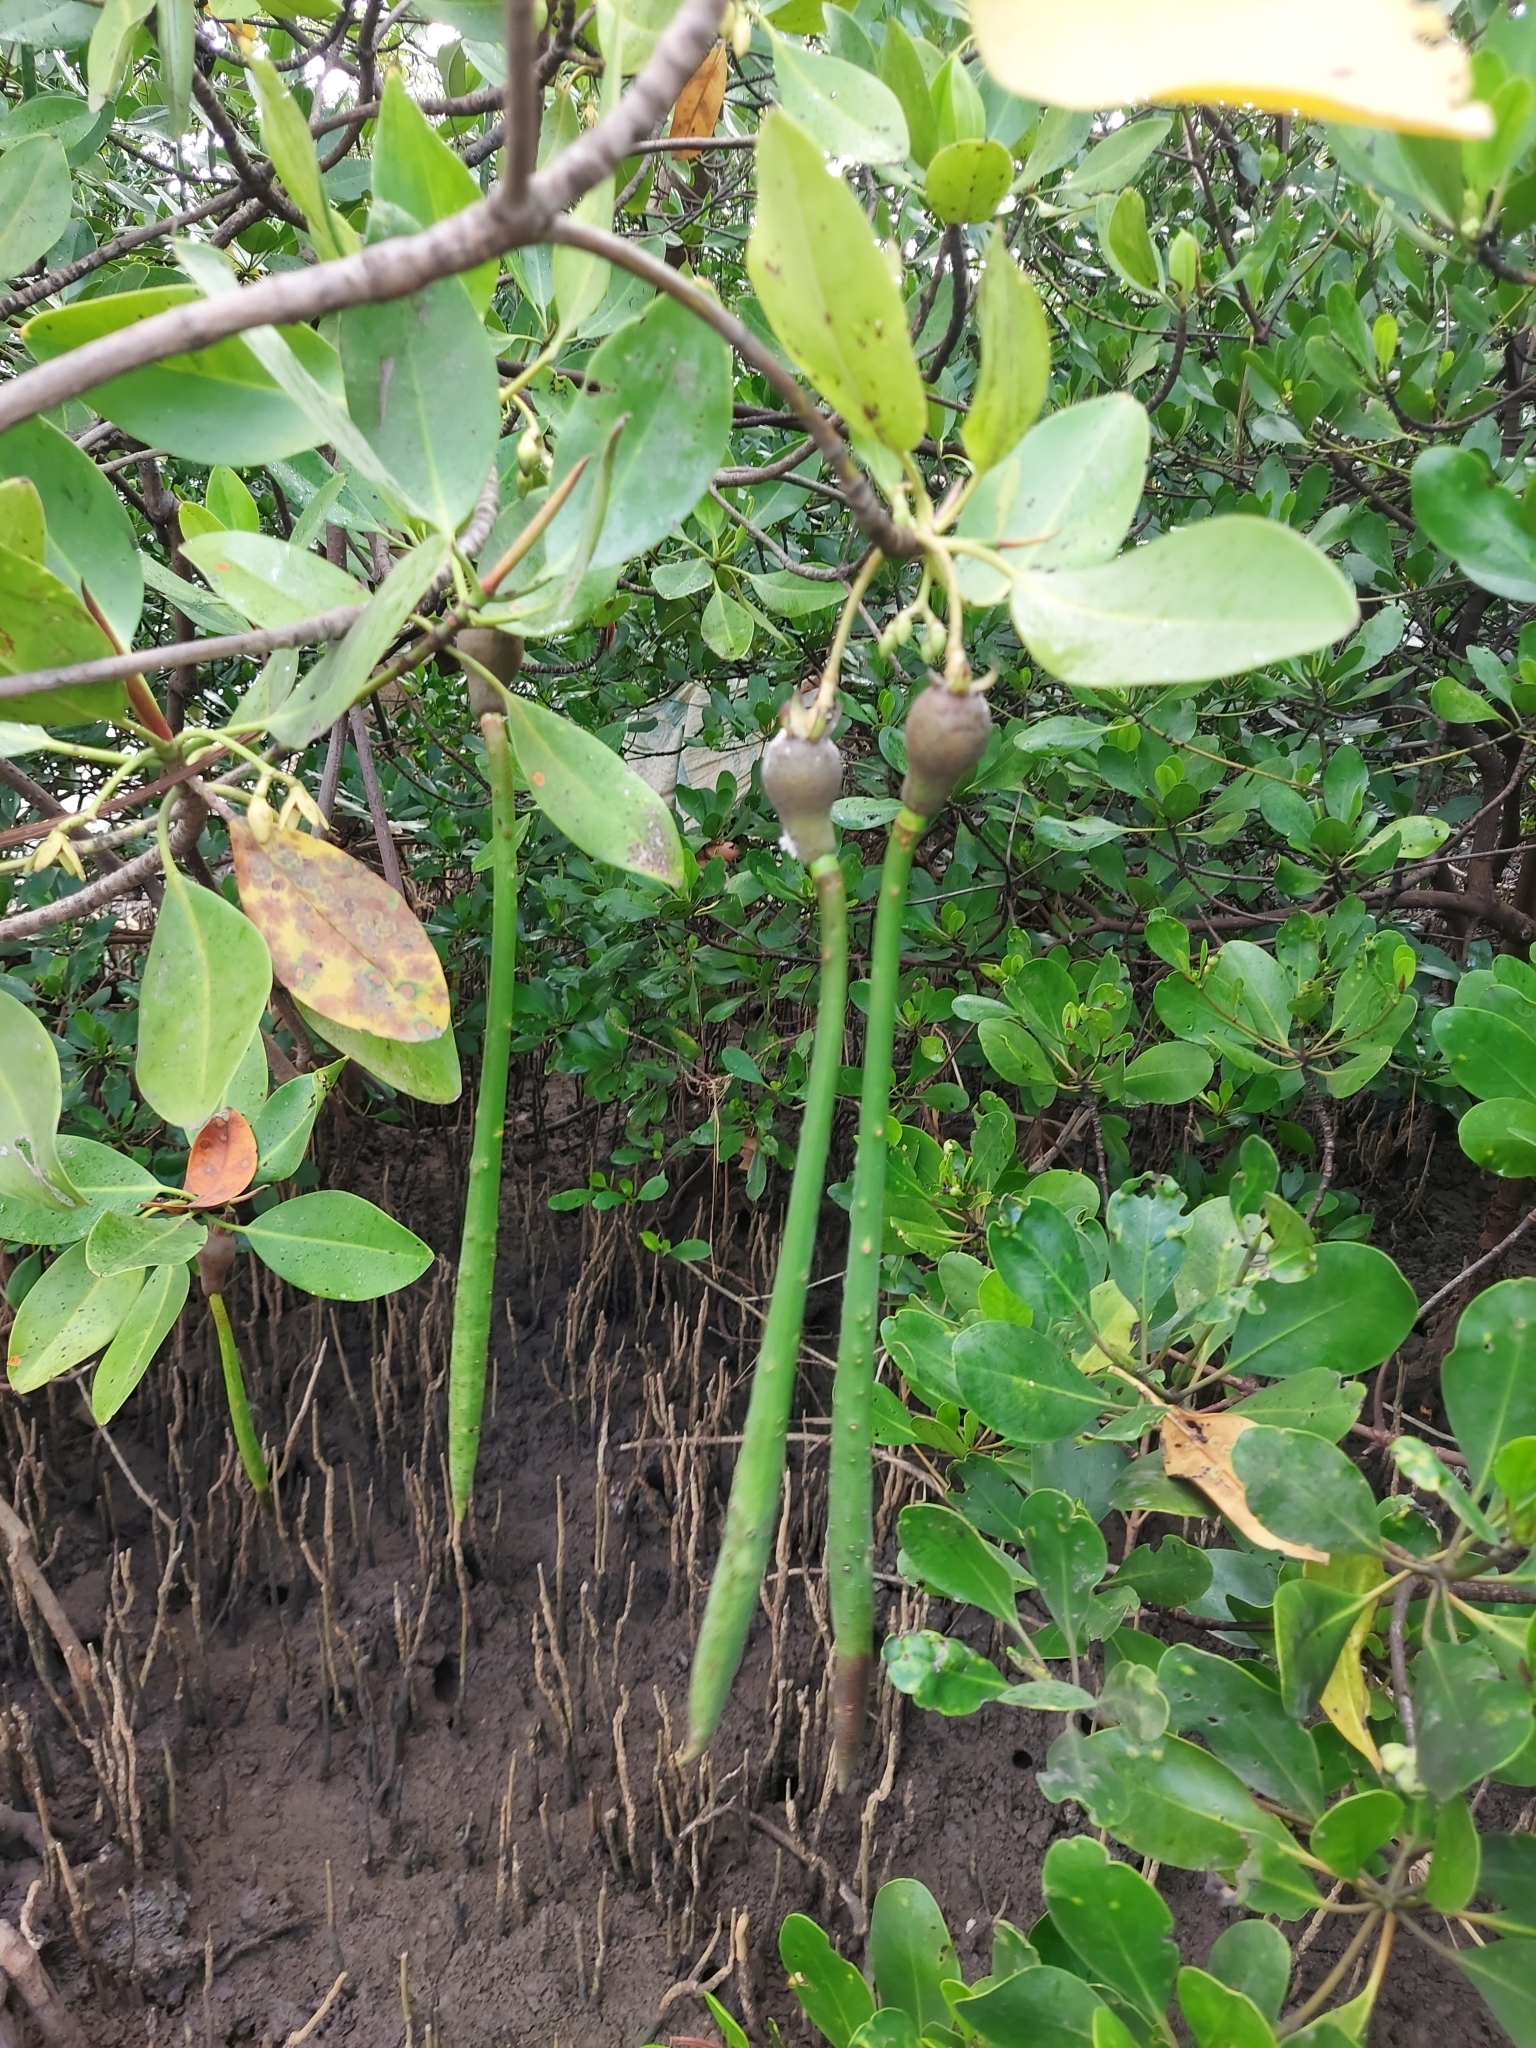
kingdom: Plantae
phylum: Tracheophyta
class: Magnoliopsida
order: Malpighiales
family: Rhizophoraceae
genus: Rhizophora
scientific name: Rhizophora mucronata
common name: Loop-root mangrove
